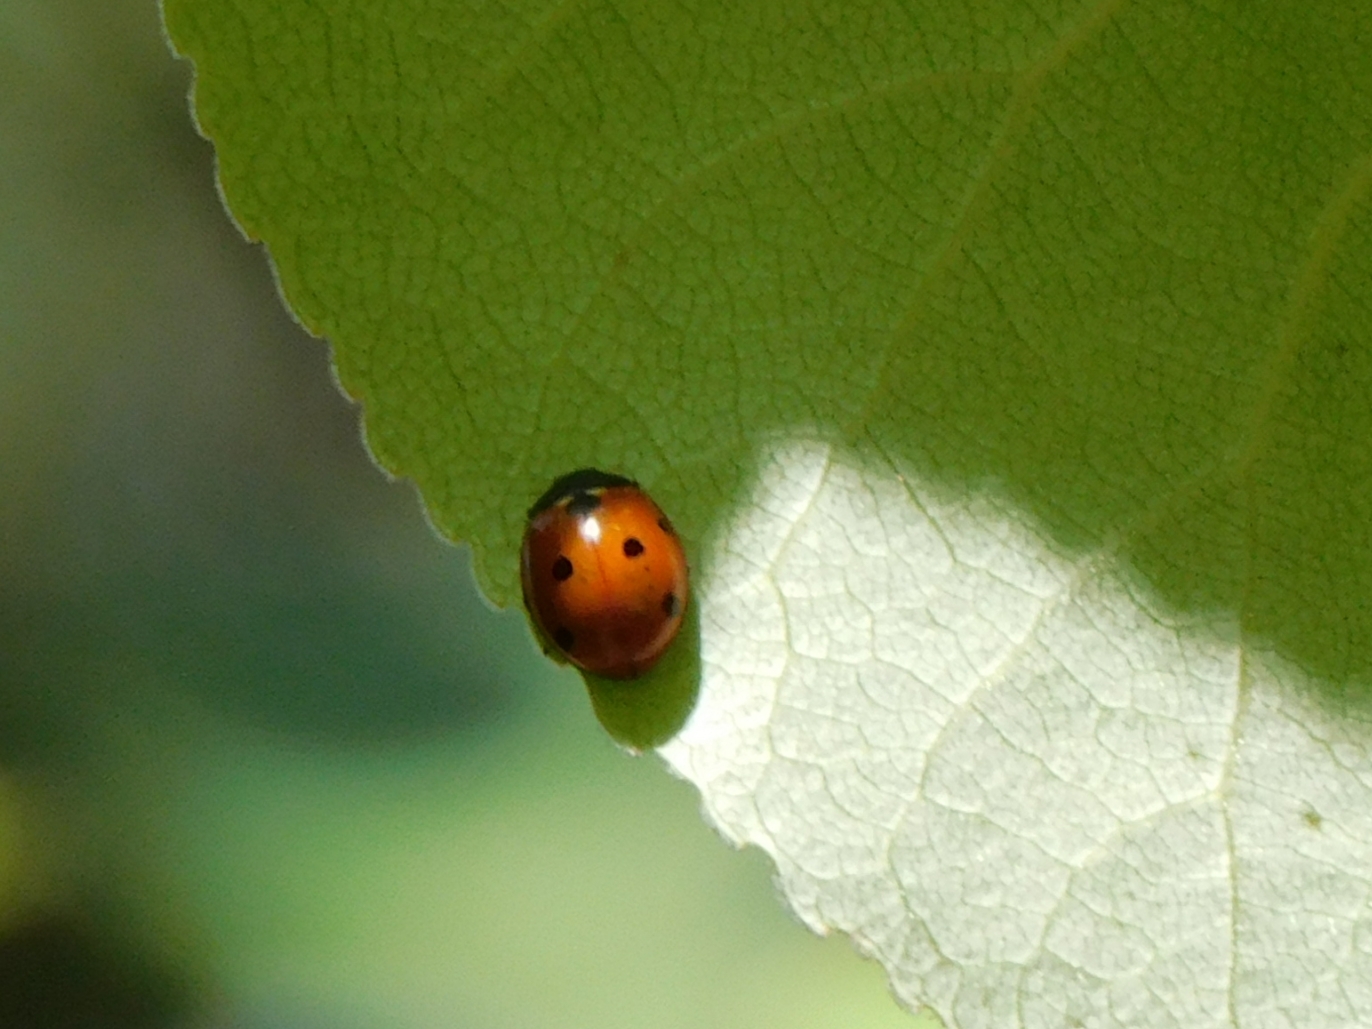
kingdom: Animalia
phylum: Arthropoda
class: Insecta
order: Coleoptera
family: Coccinellidae
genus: Coccinella
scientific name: Coccinella septempunctata
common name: Sevenspotted lady beetle
